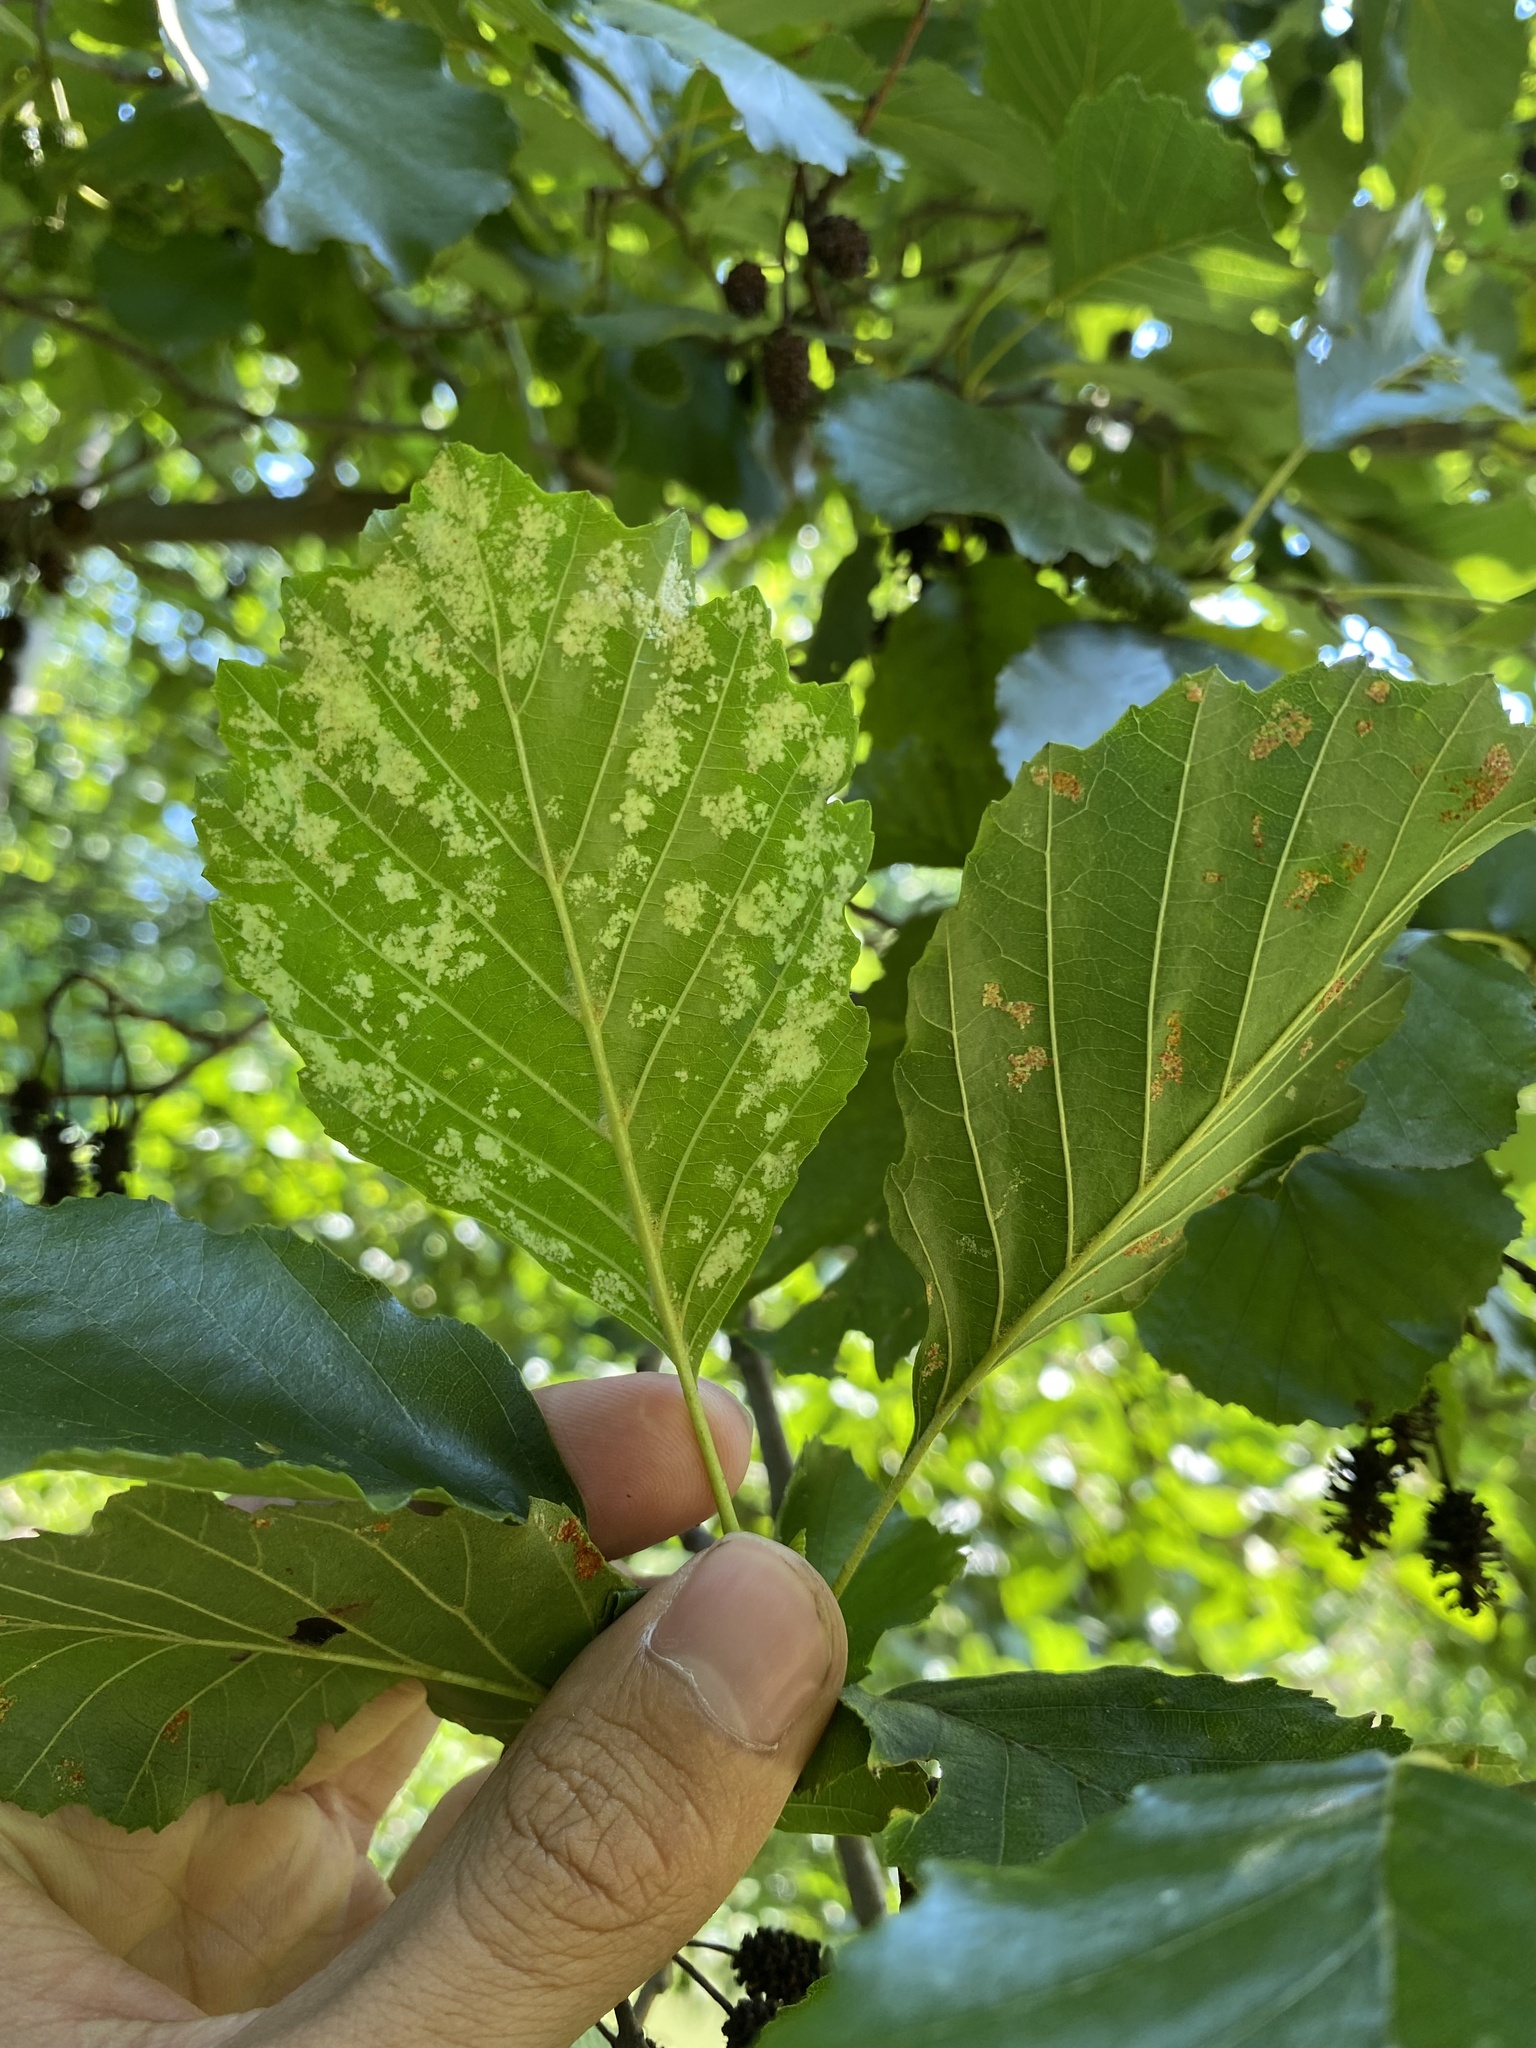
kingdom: Animalia
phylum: Arthropoda
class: Arachnida
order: Trombidiformes
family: Eriophyidae
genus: Acalitus
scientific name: Acalitus brevitarsus
